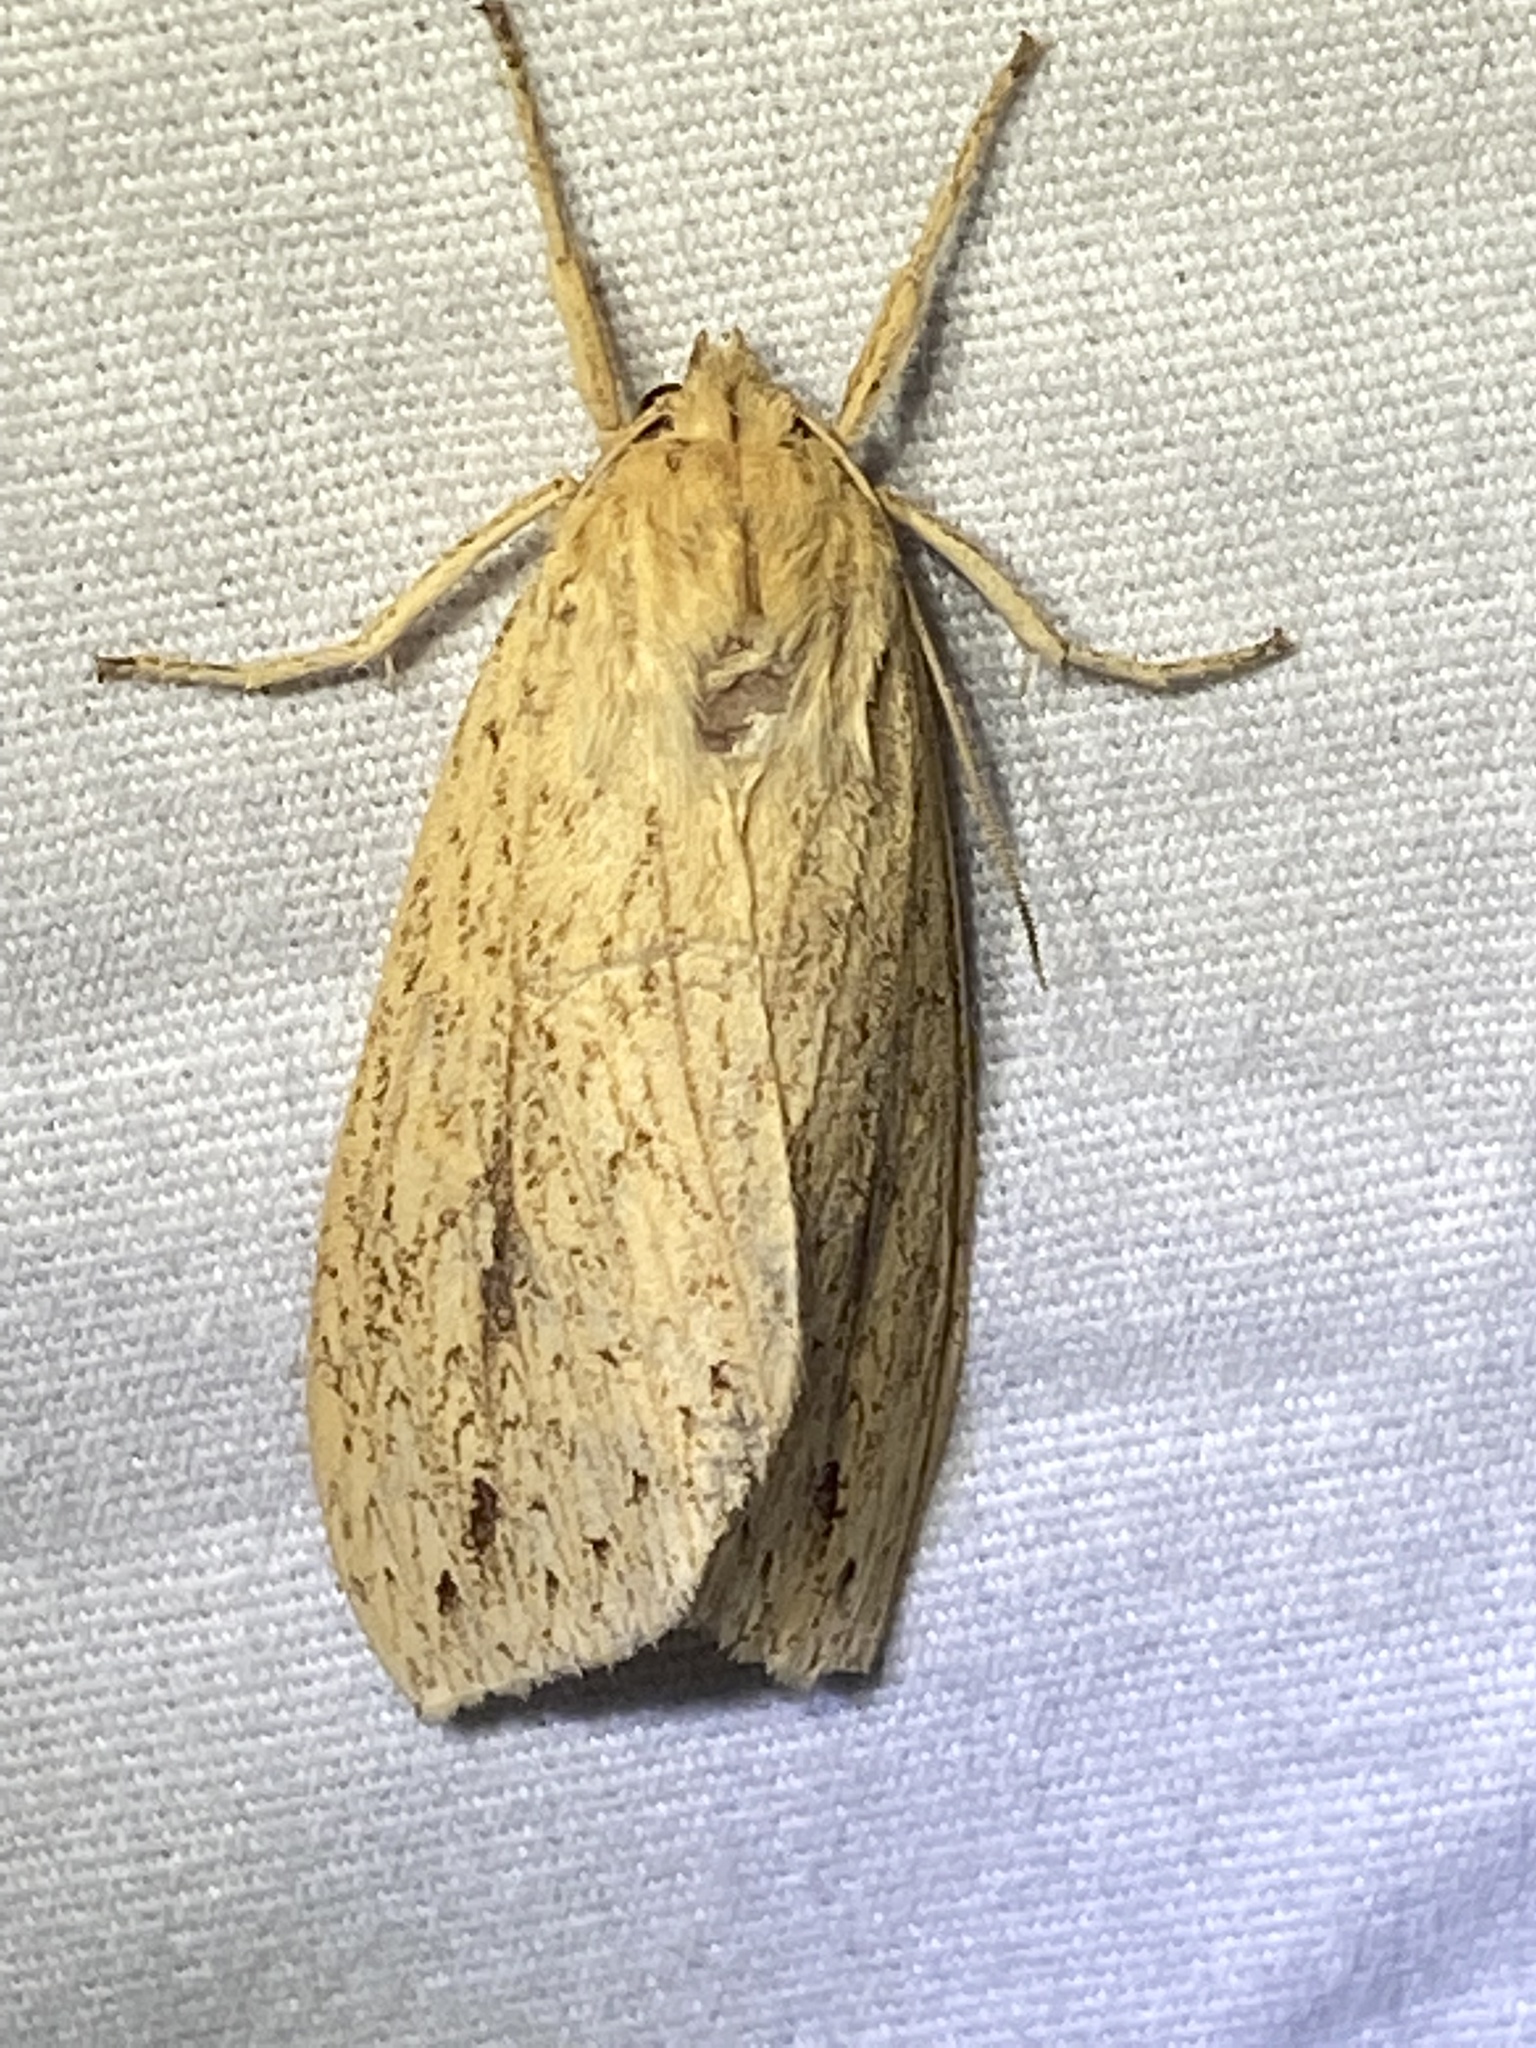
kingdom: Animalia
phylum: Arthropoda
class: Insecta
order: Lepidoptera
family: Erebidae
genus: Leucanopsis
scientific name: Leucanopsis longa
